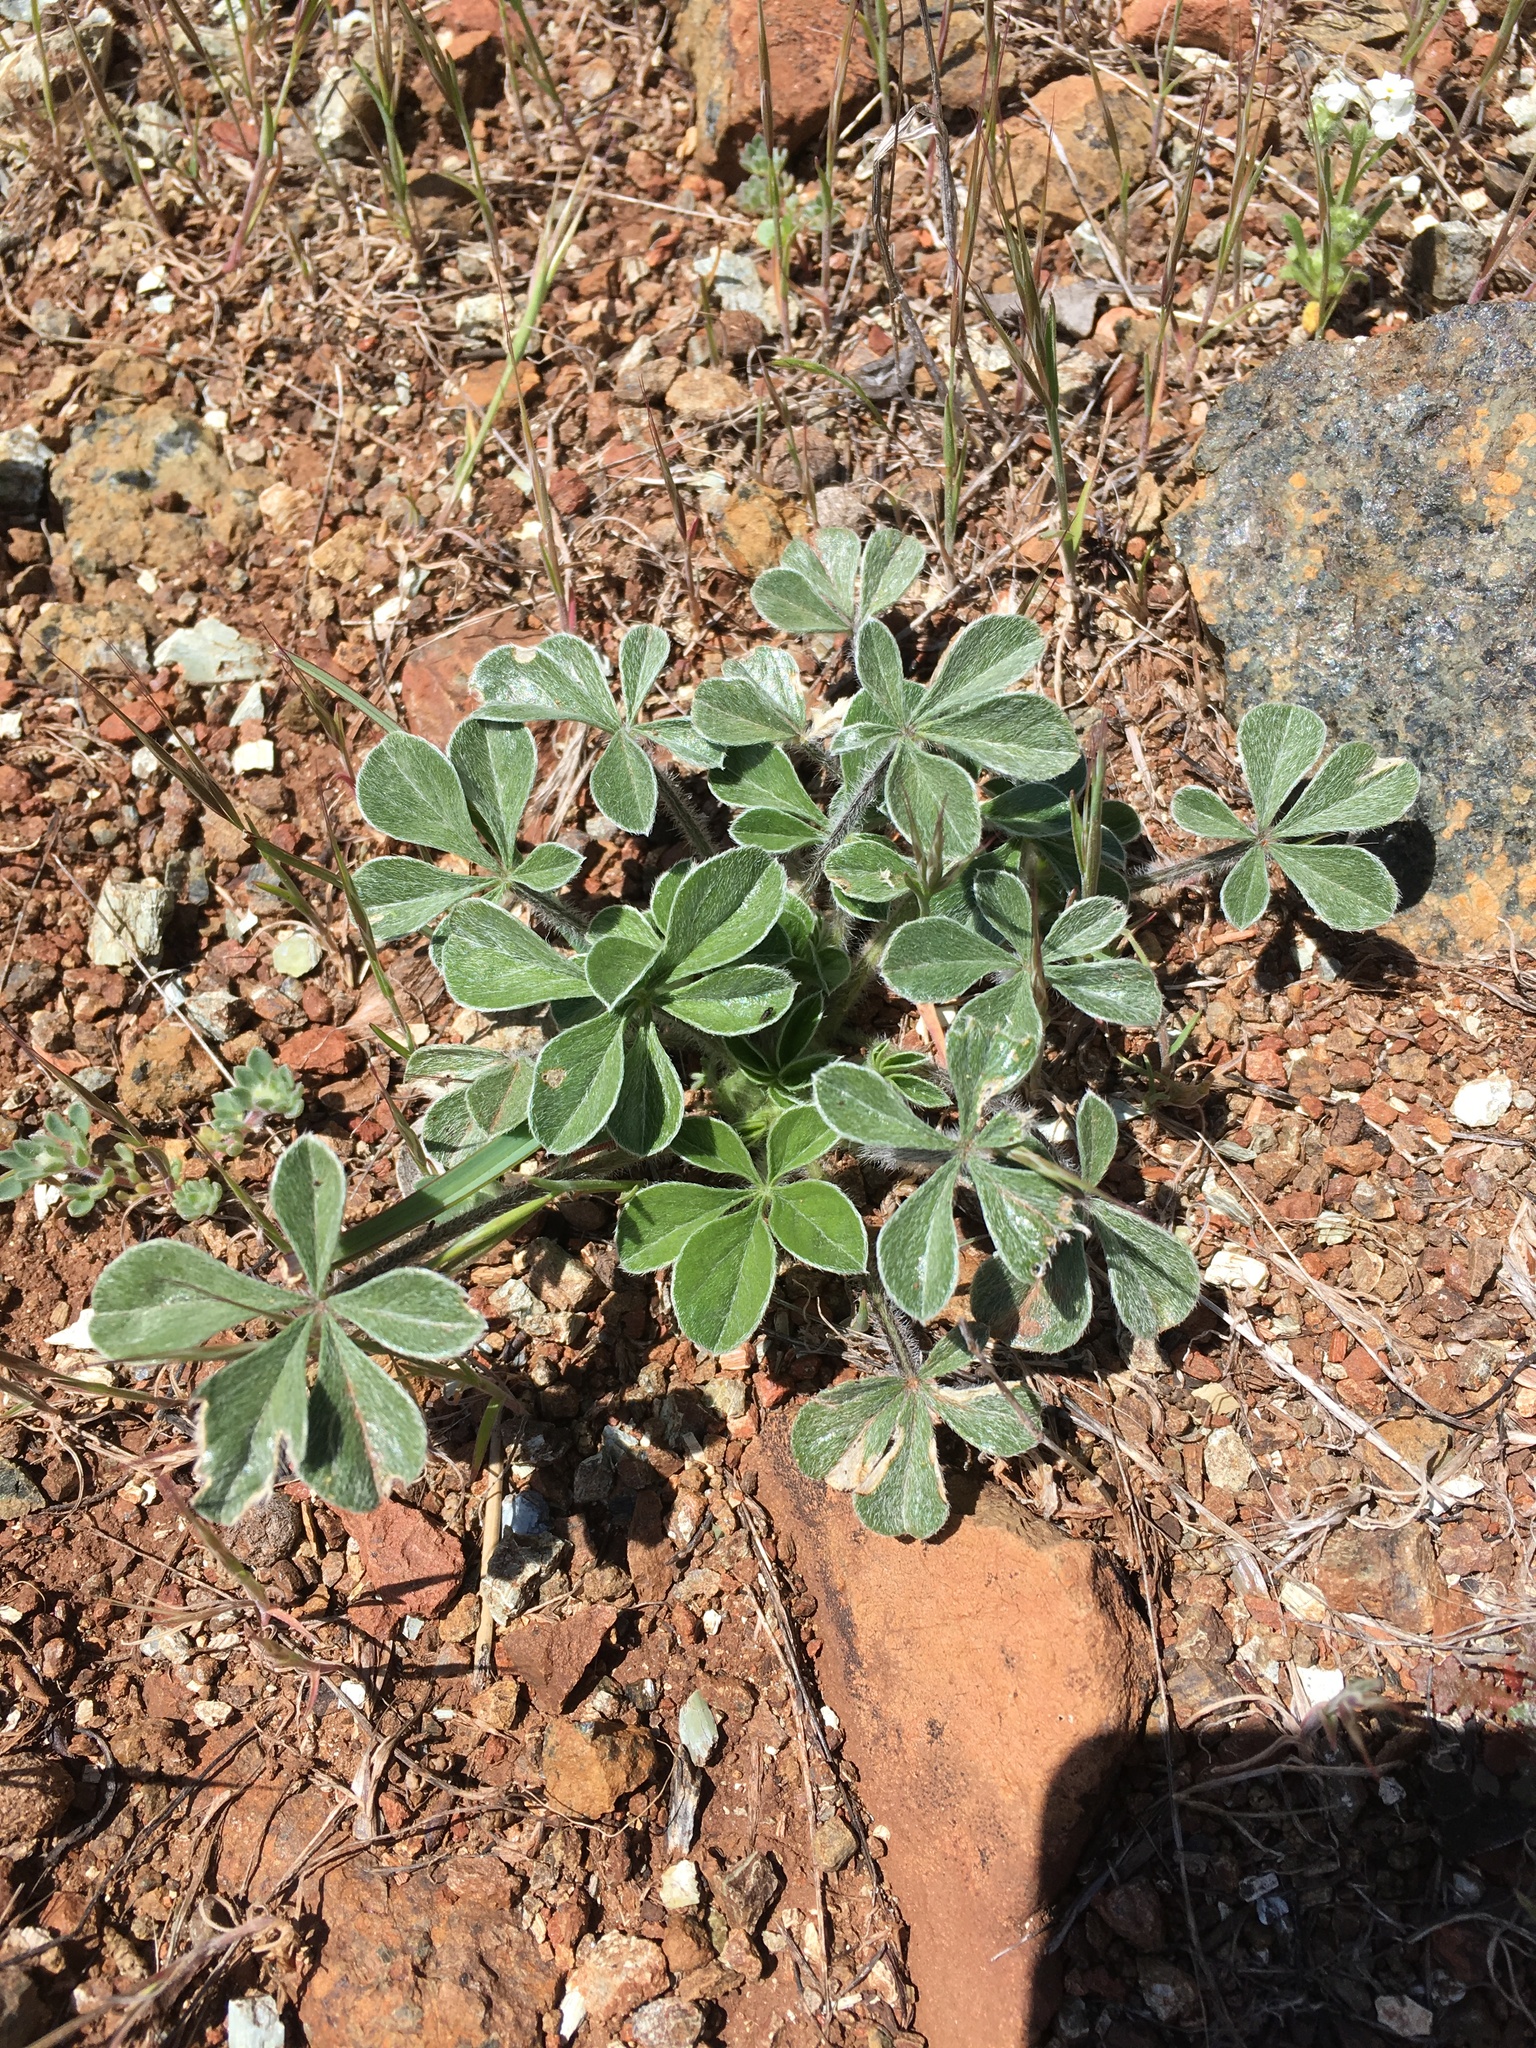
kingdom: Plantae
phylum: Tracheophyta
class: Magnoliopsida
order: Fabales
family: Fabaceae
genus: Pediomelum
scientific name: Pediomelum californicum
